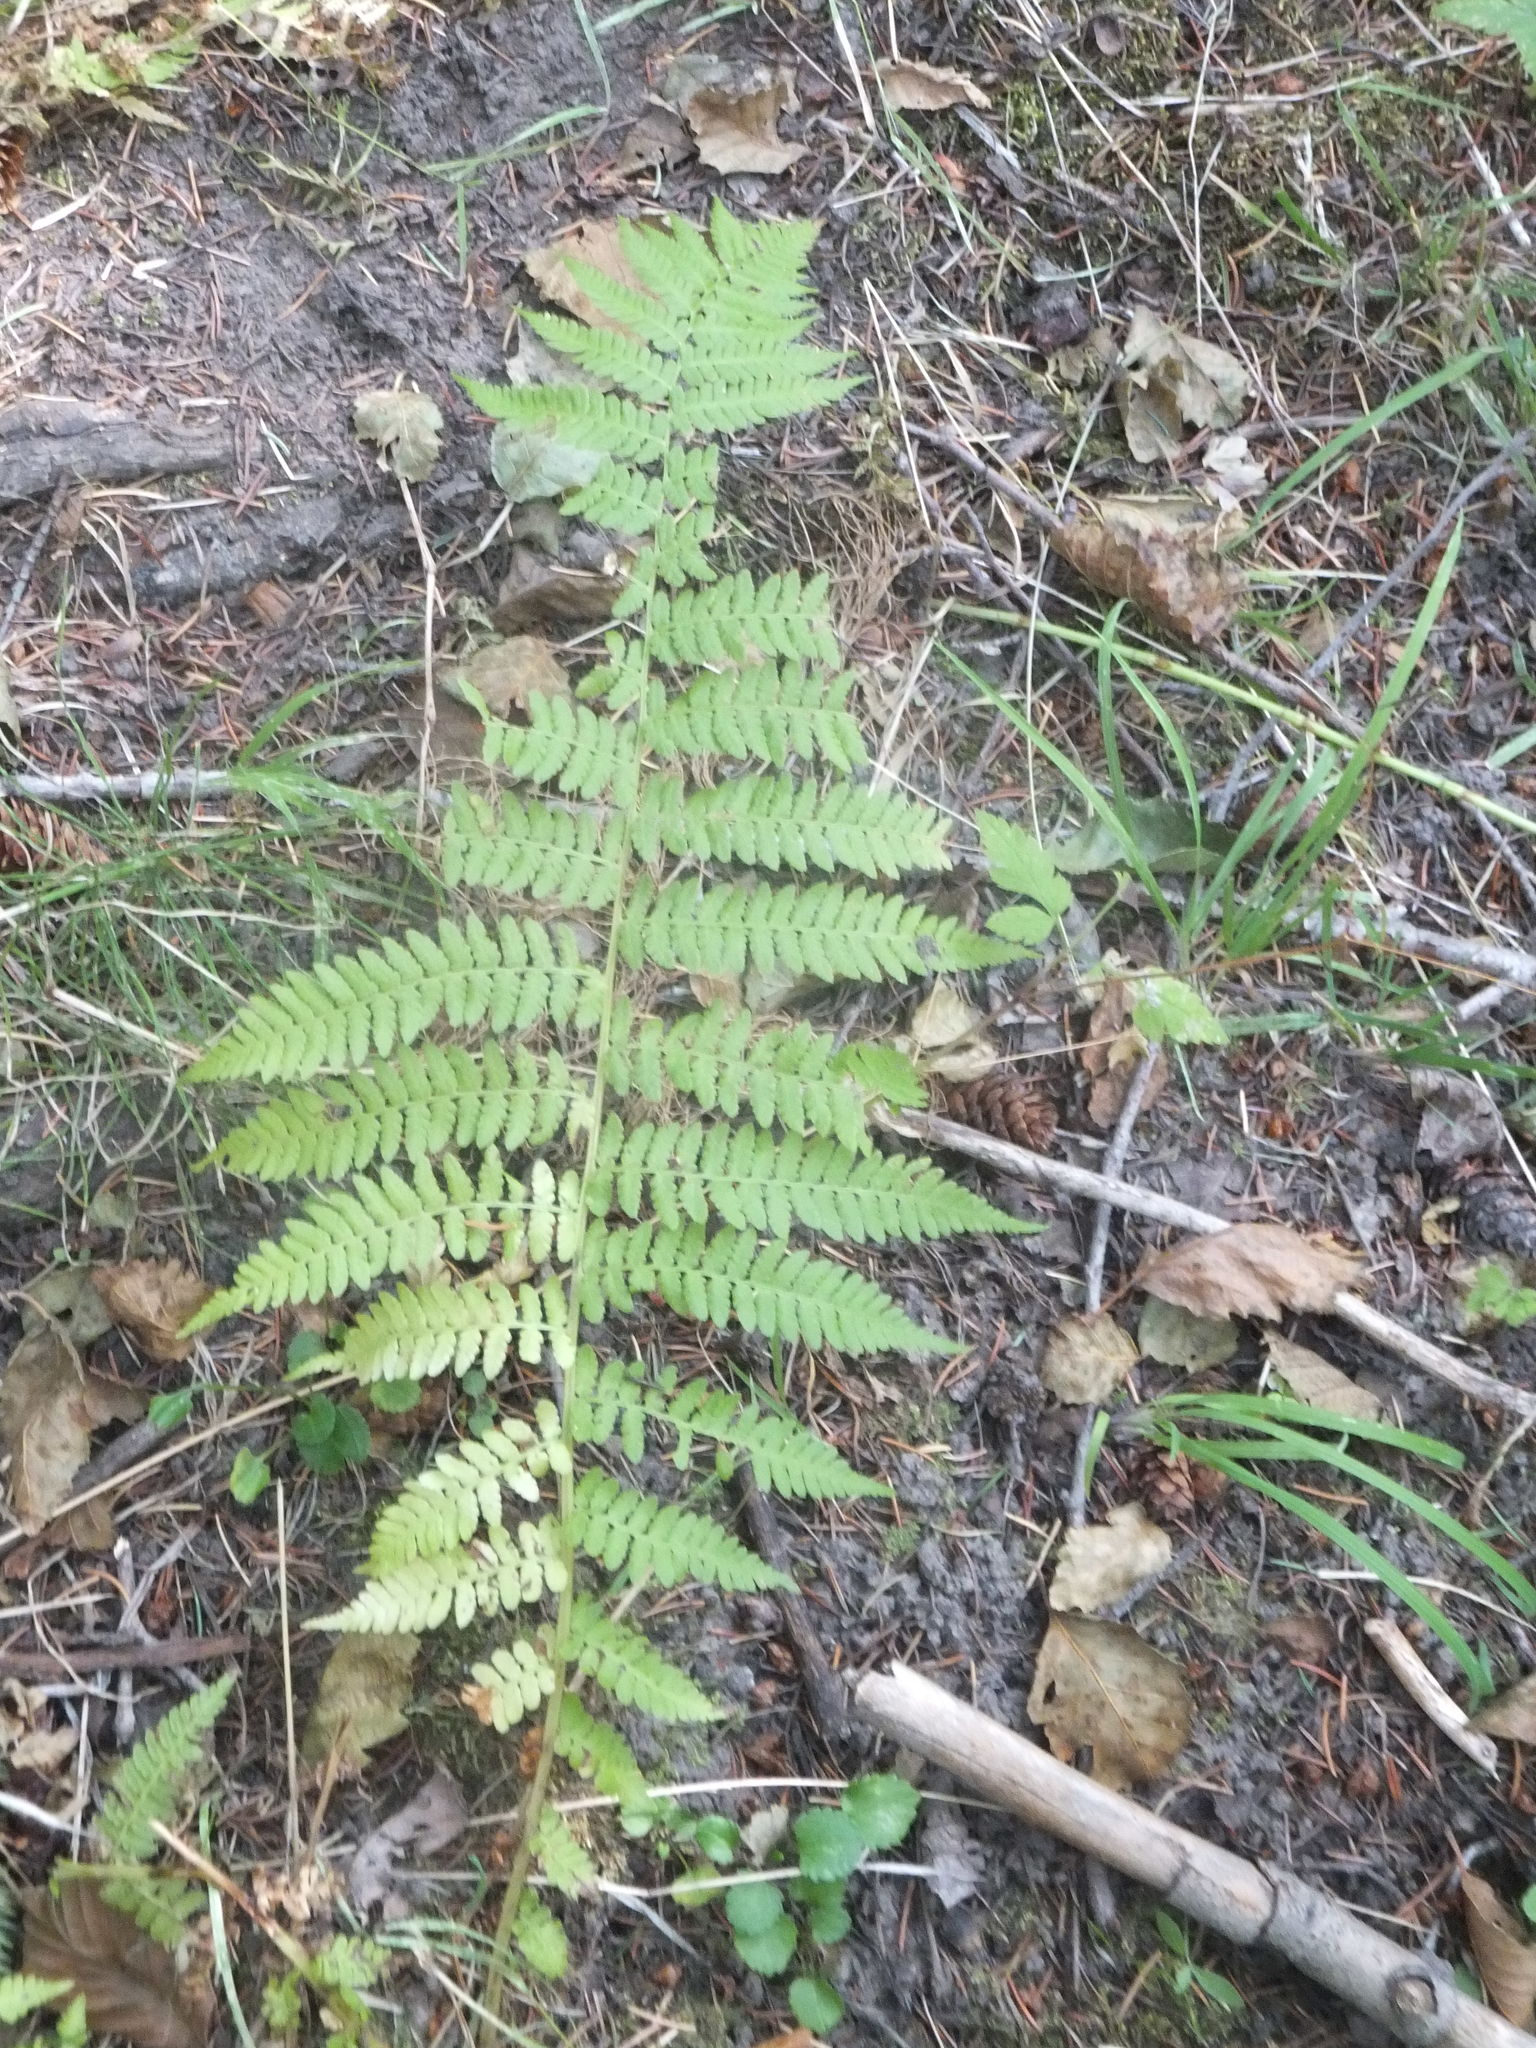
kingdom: Plantae
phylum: Tracheophyta
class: Polypodiopsida
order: Polypodiales
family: Athyriaceae
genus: Athyrium
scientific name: Athyrium filix-femina
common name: Lady fern
